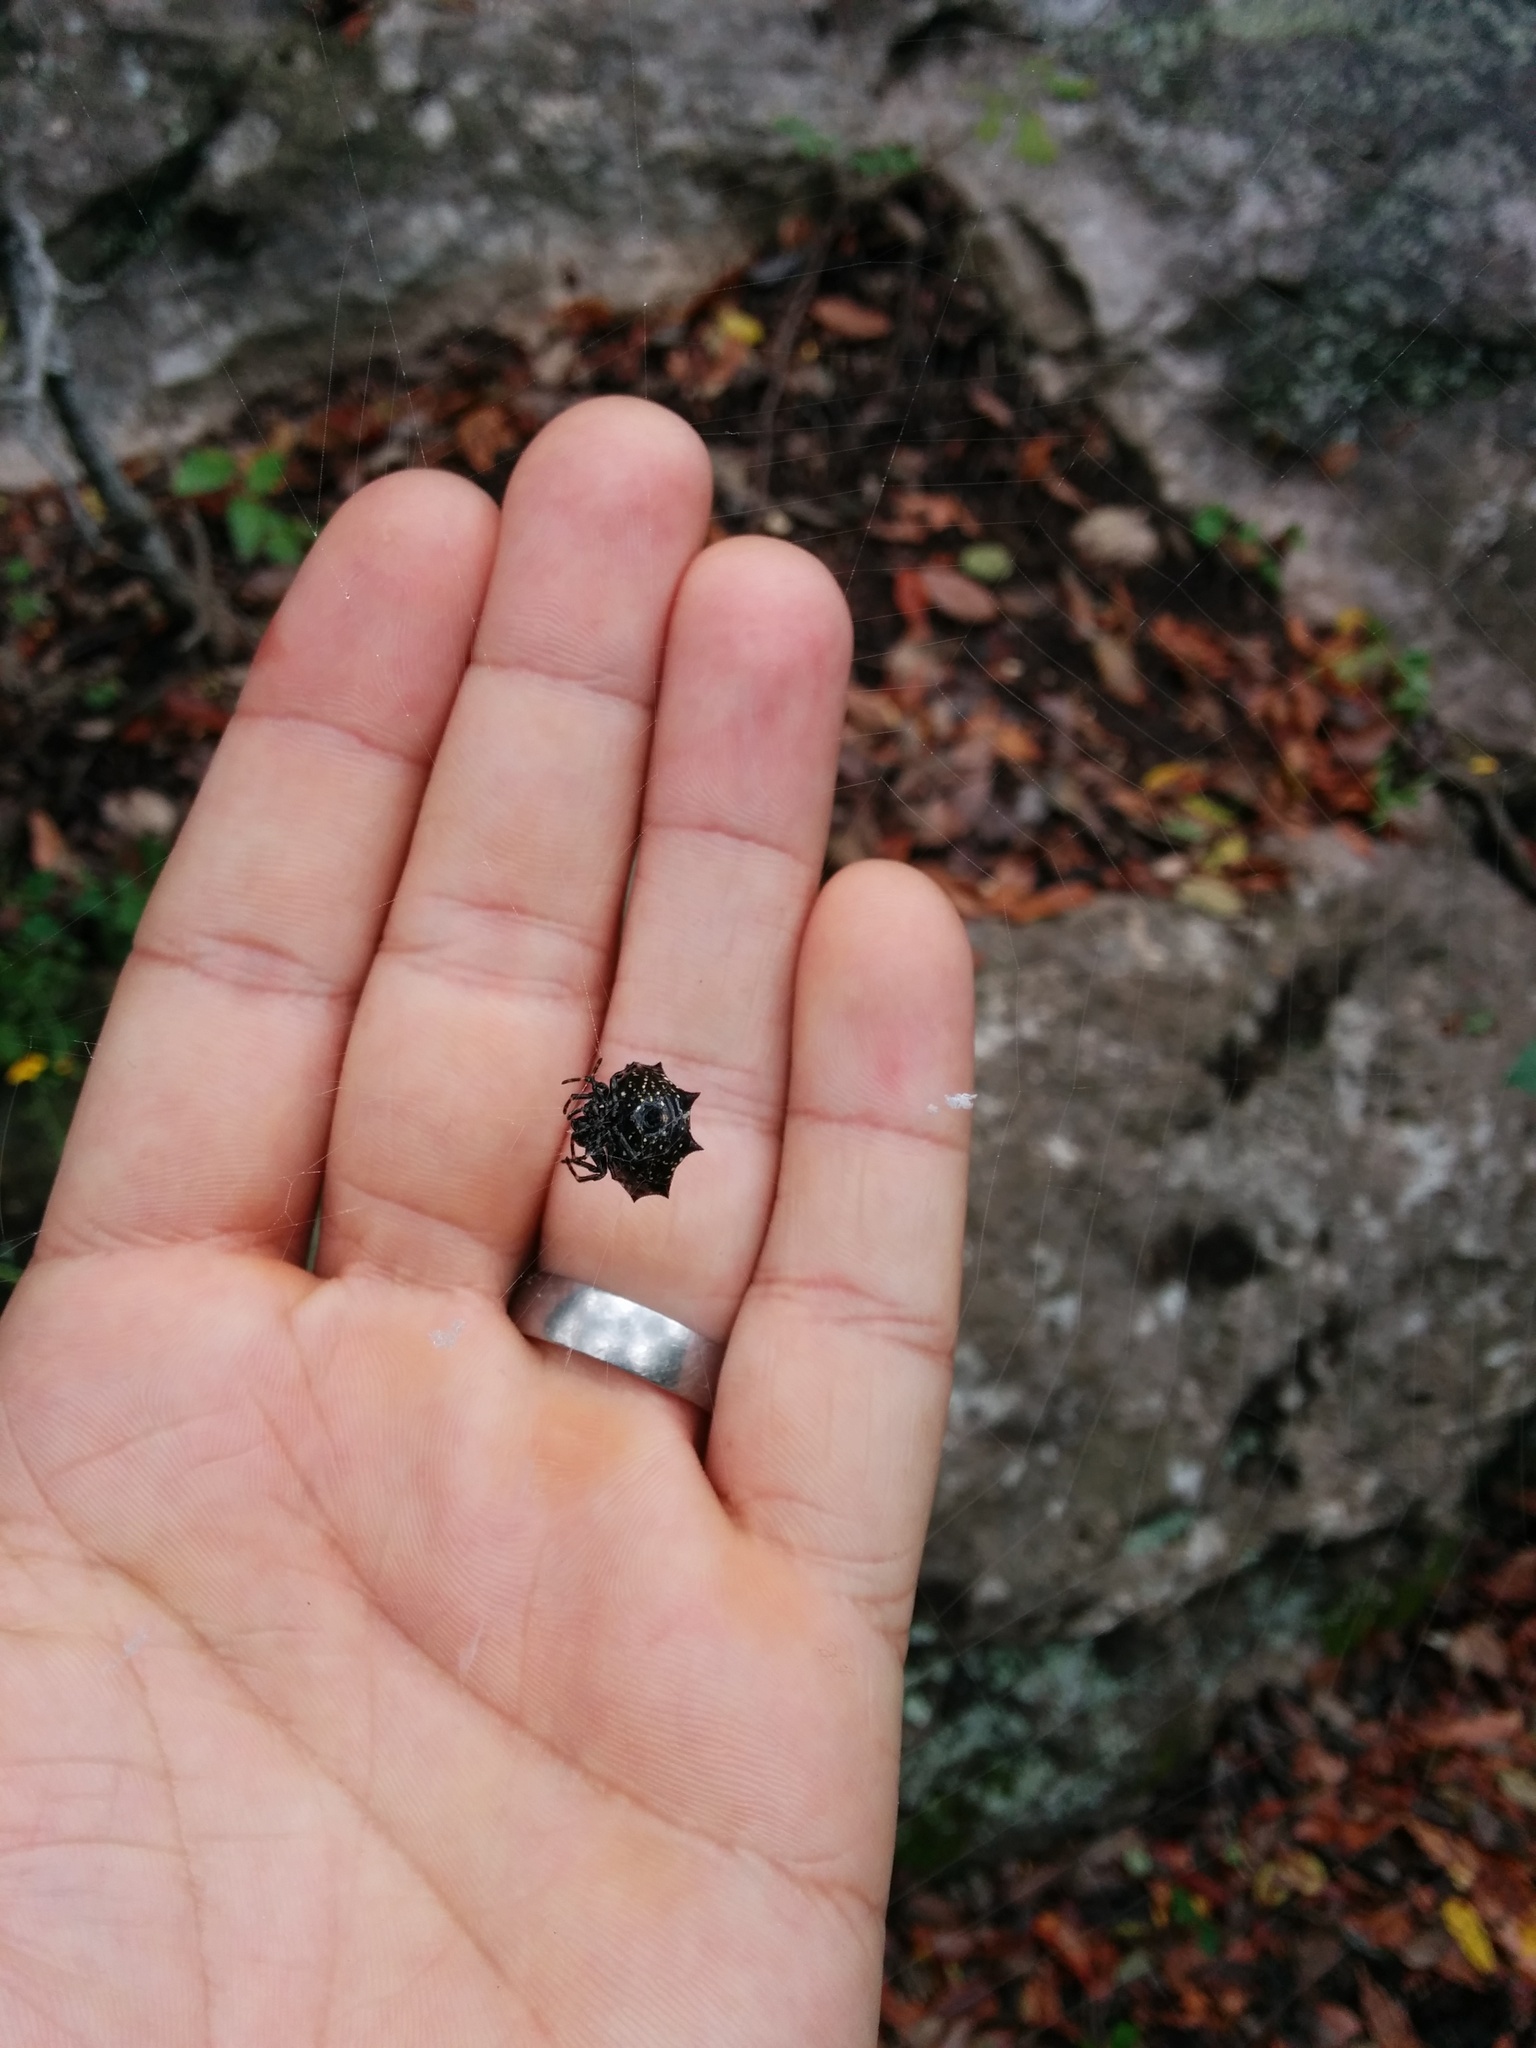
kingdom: Animalia
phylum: Arthropoda
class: Arachnida
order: Araneae
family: Araneidae
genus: Gasteracantha
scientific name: Gasteracantha cancriformis
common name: Orb weavers
